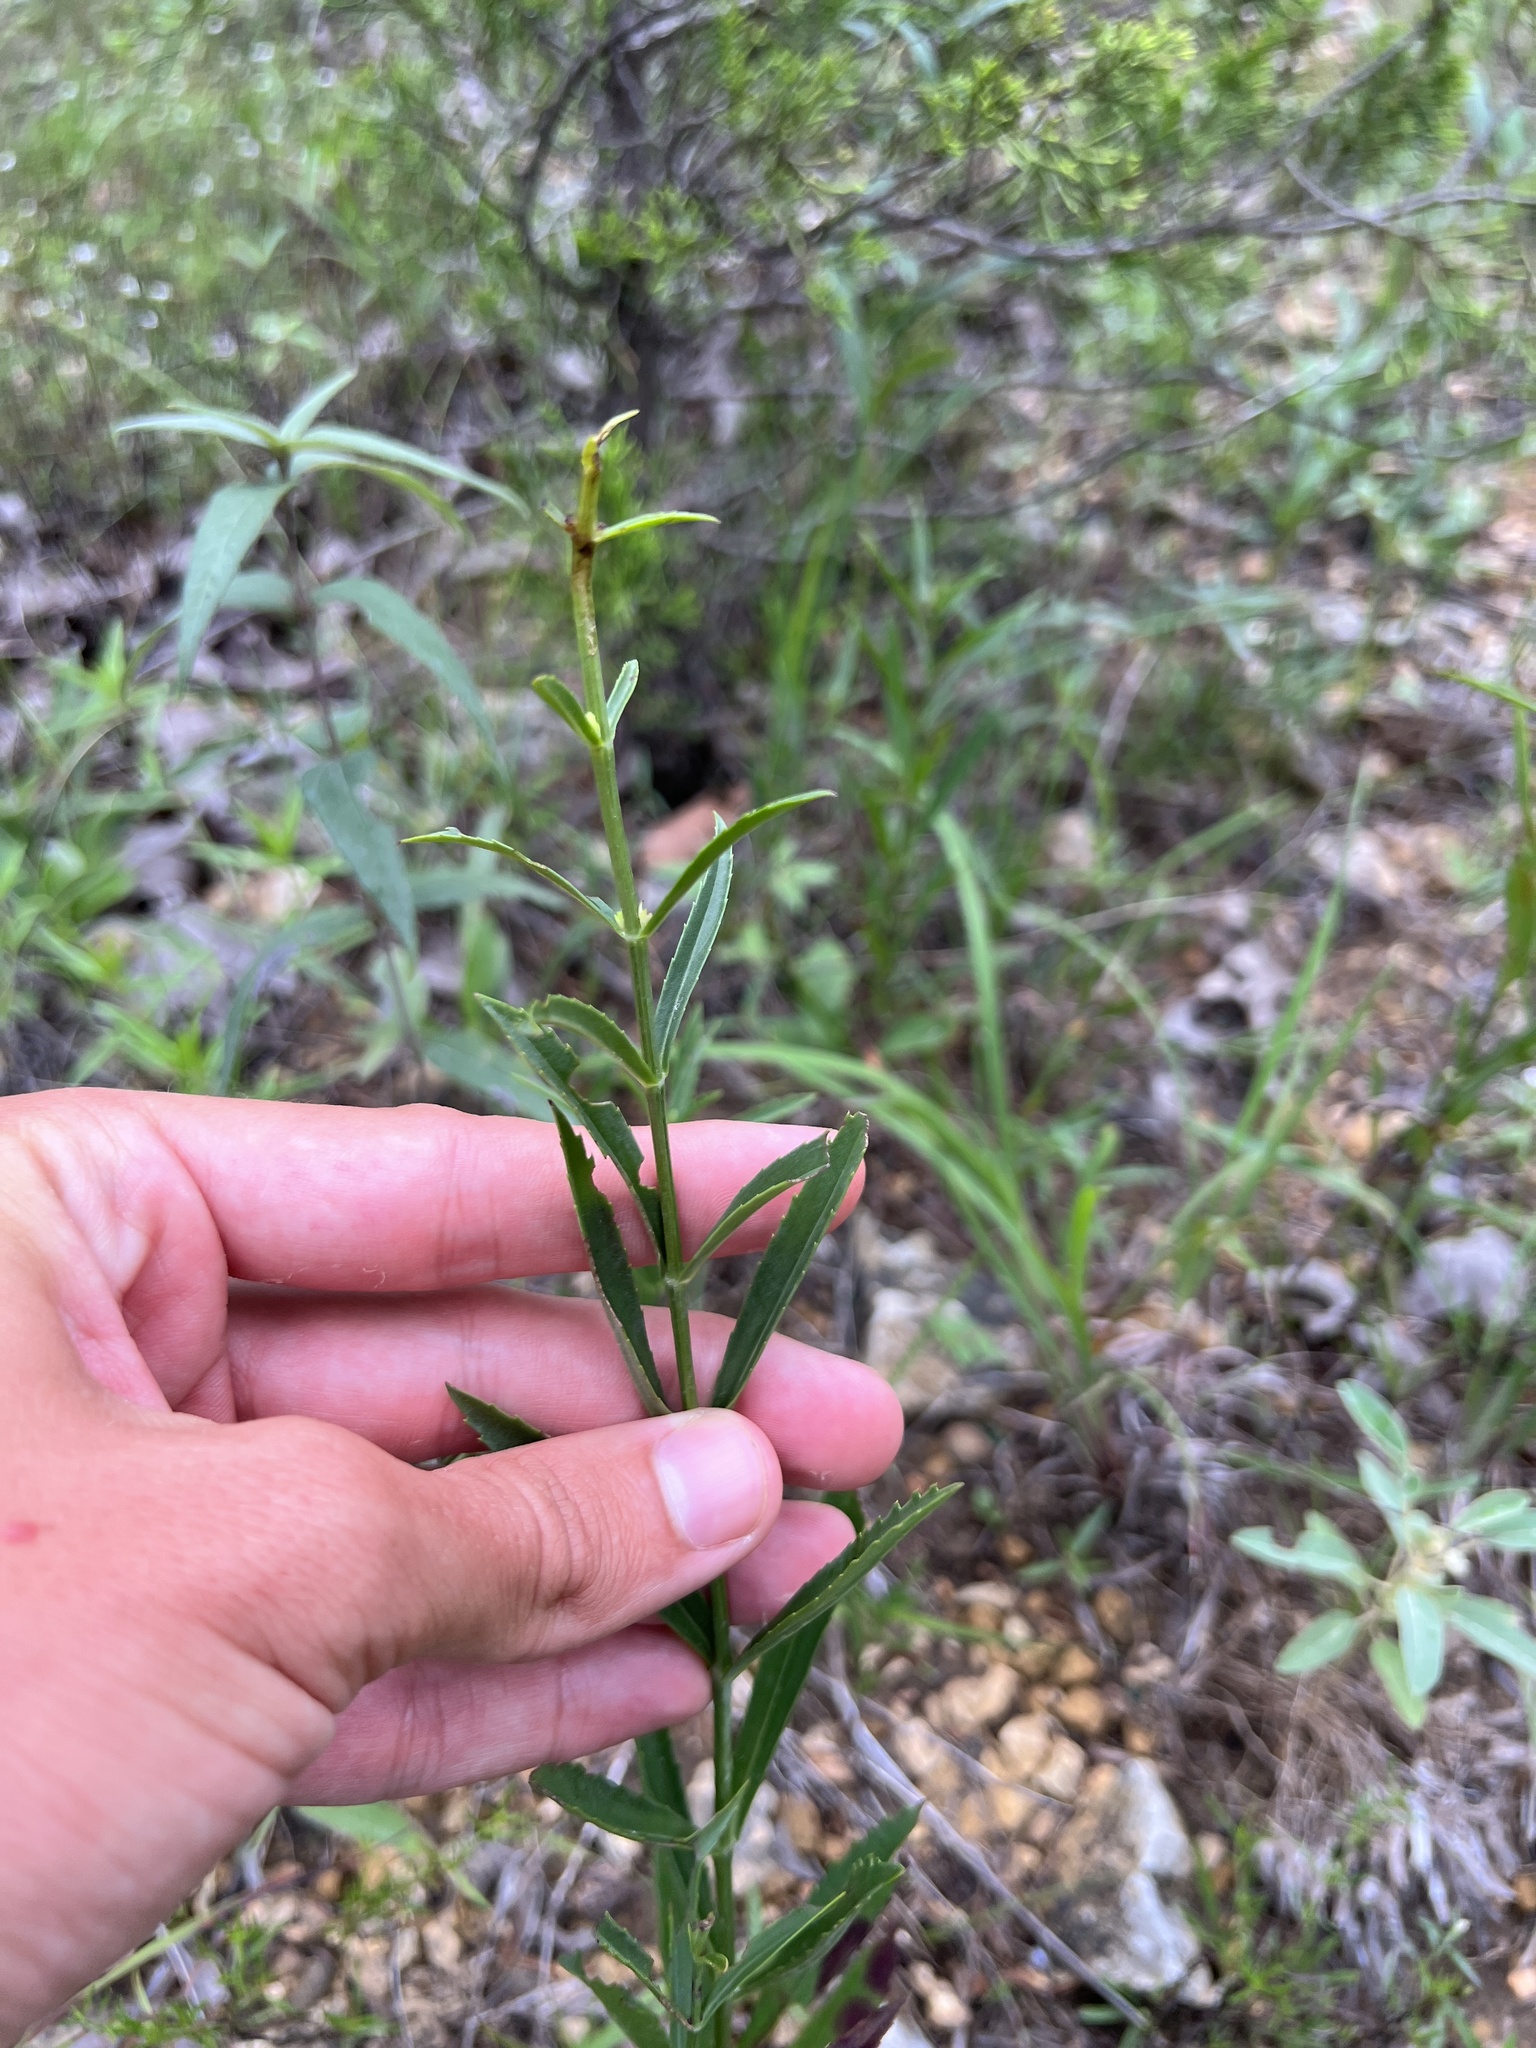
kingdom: Plantae
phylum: Tracheophyta
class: Magnoliopsida
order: Lamiales
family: Lamiaceae
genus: Physostegia
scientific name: Physostegia virginiana
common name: Obedient-plant
